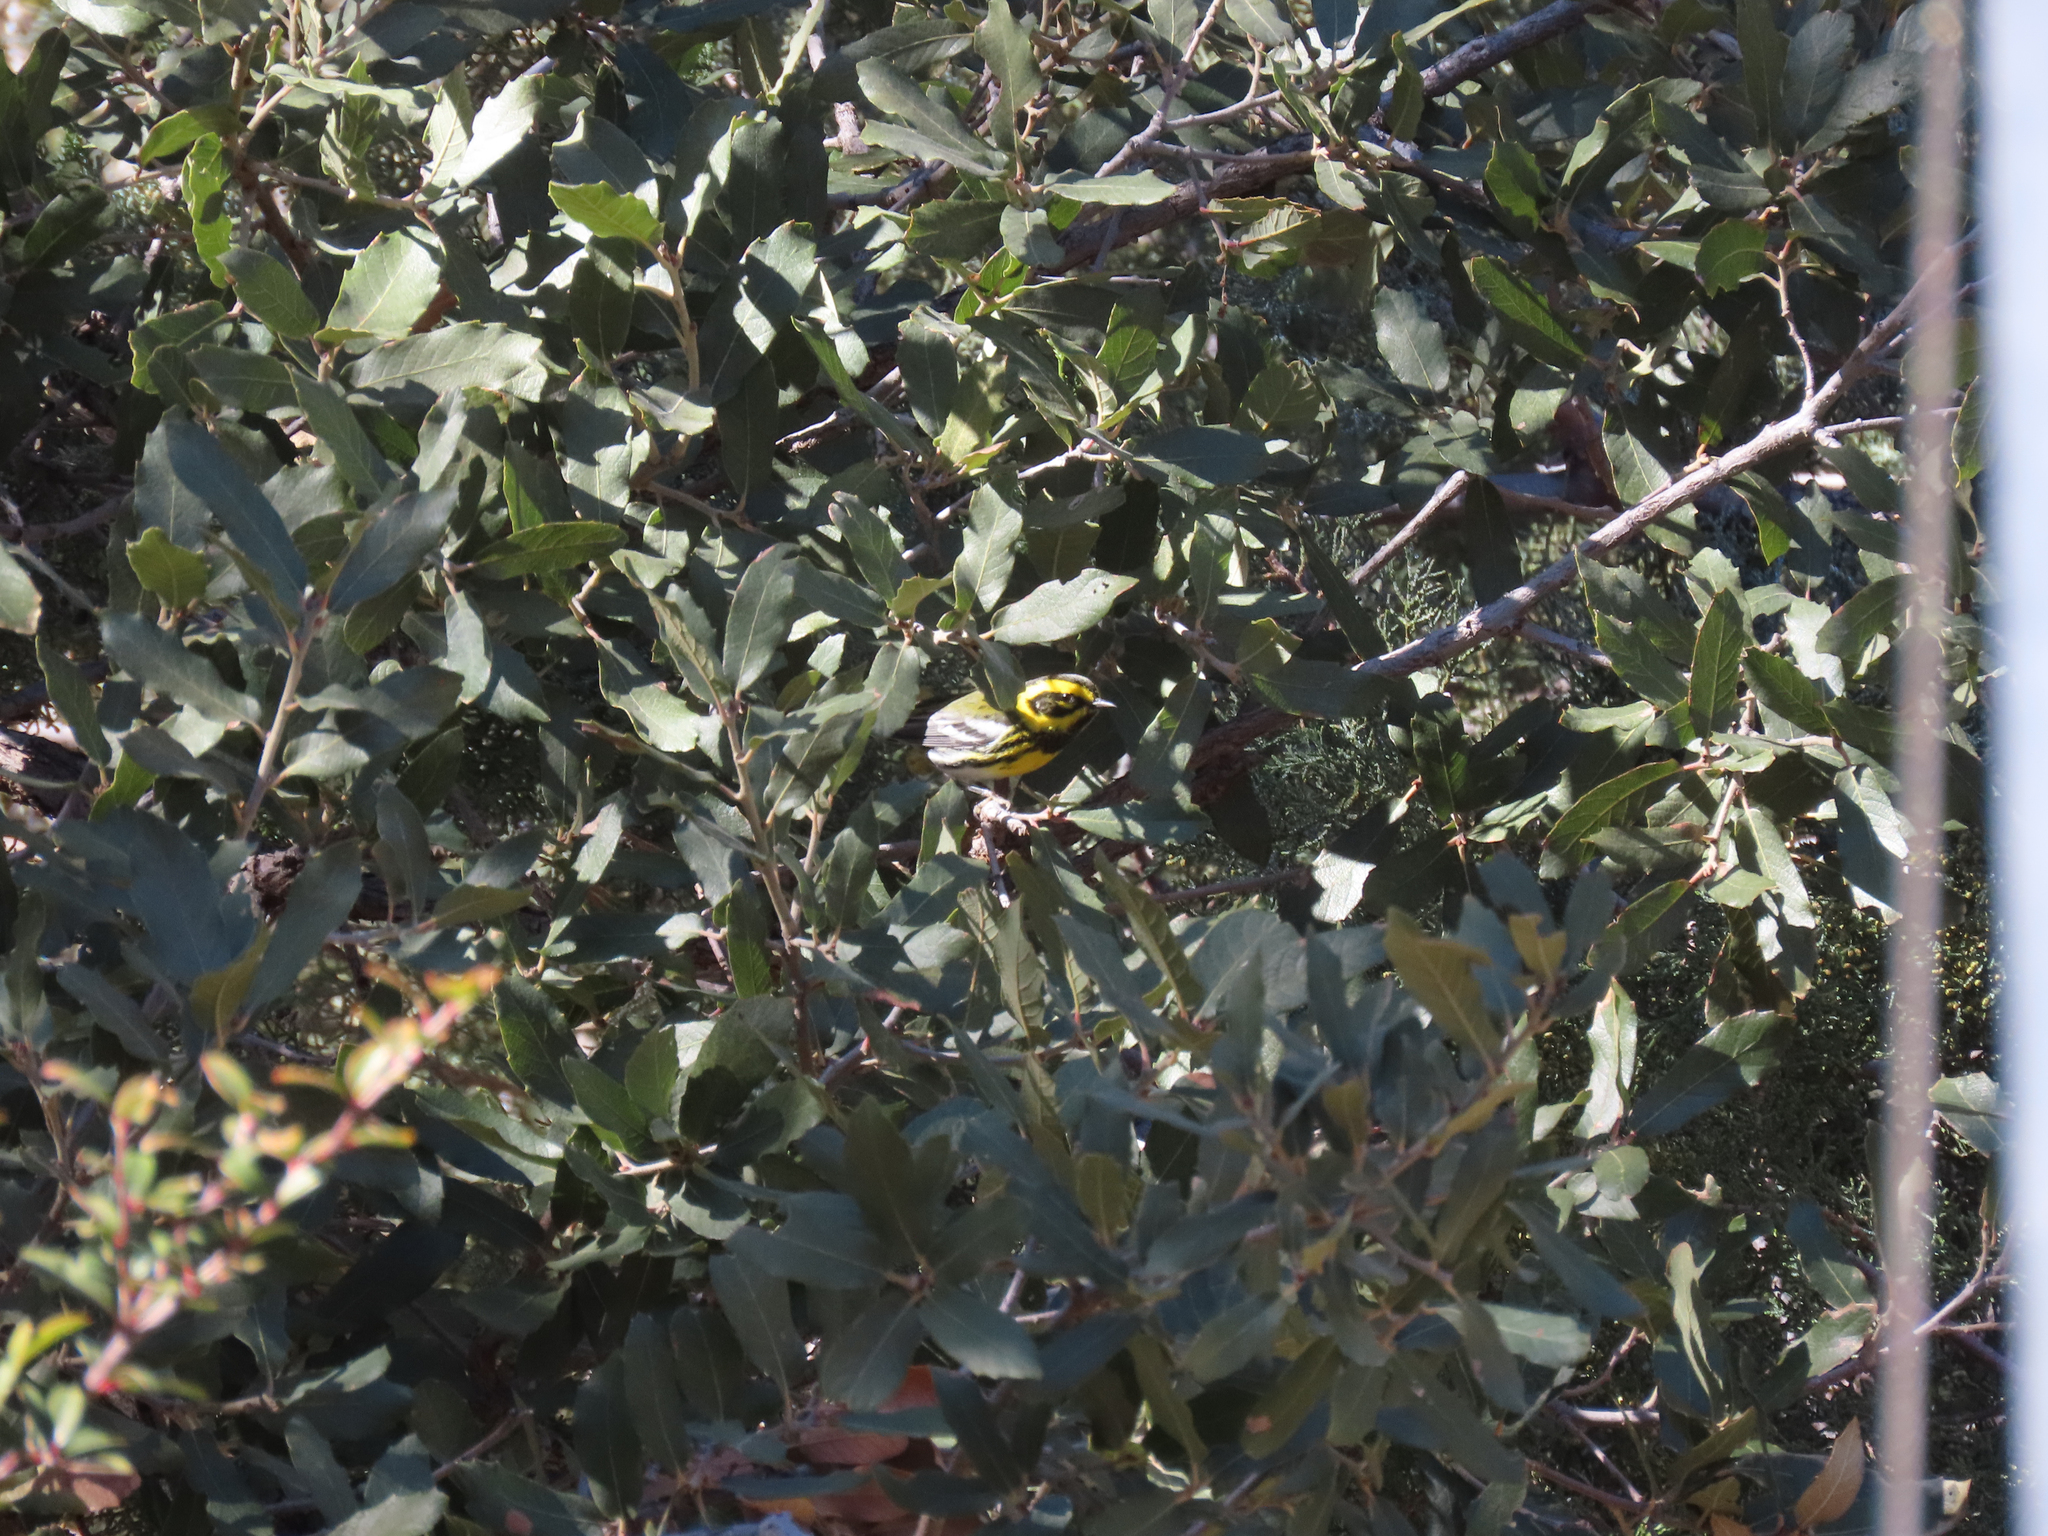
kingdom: Animalia
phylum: Chordata
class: Aves
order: Passeriformes
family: Parulidae
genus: Setophaga
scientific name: Setophaga townsendi
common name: Townsend's warbler
